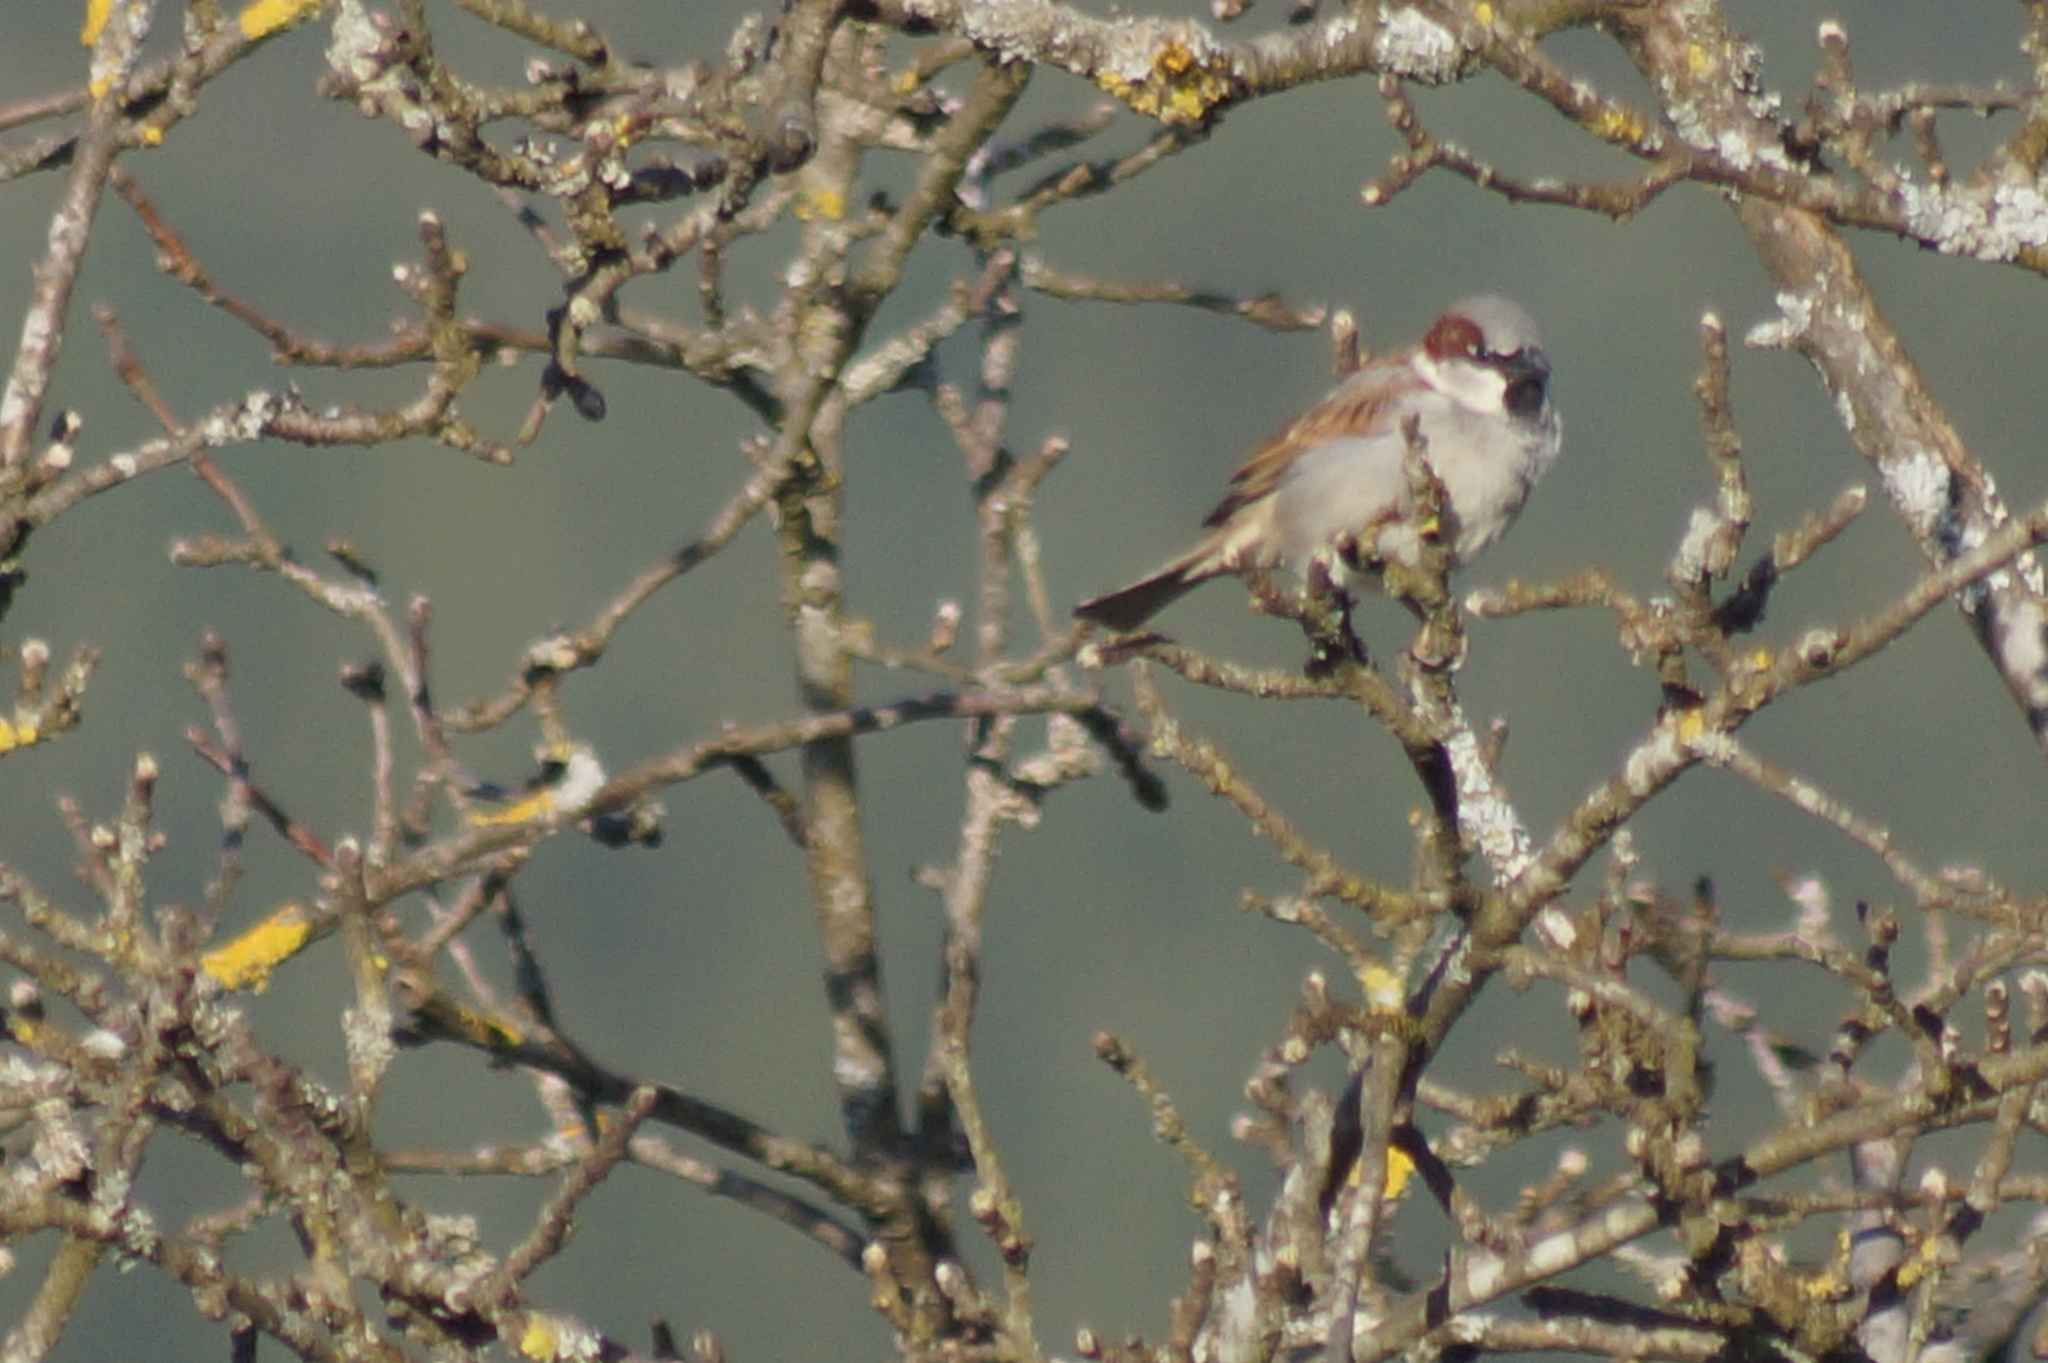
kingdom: Animalia
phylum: Chordata
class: Aves
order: Passeriformes
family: Passeridae
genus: Passer
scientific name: Passer domesticus
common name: House sparrow
